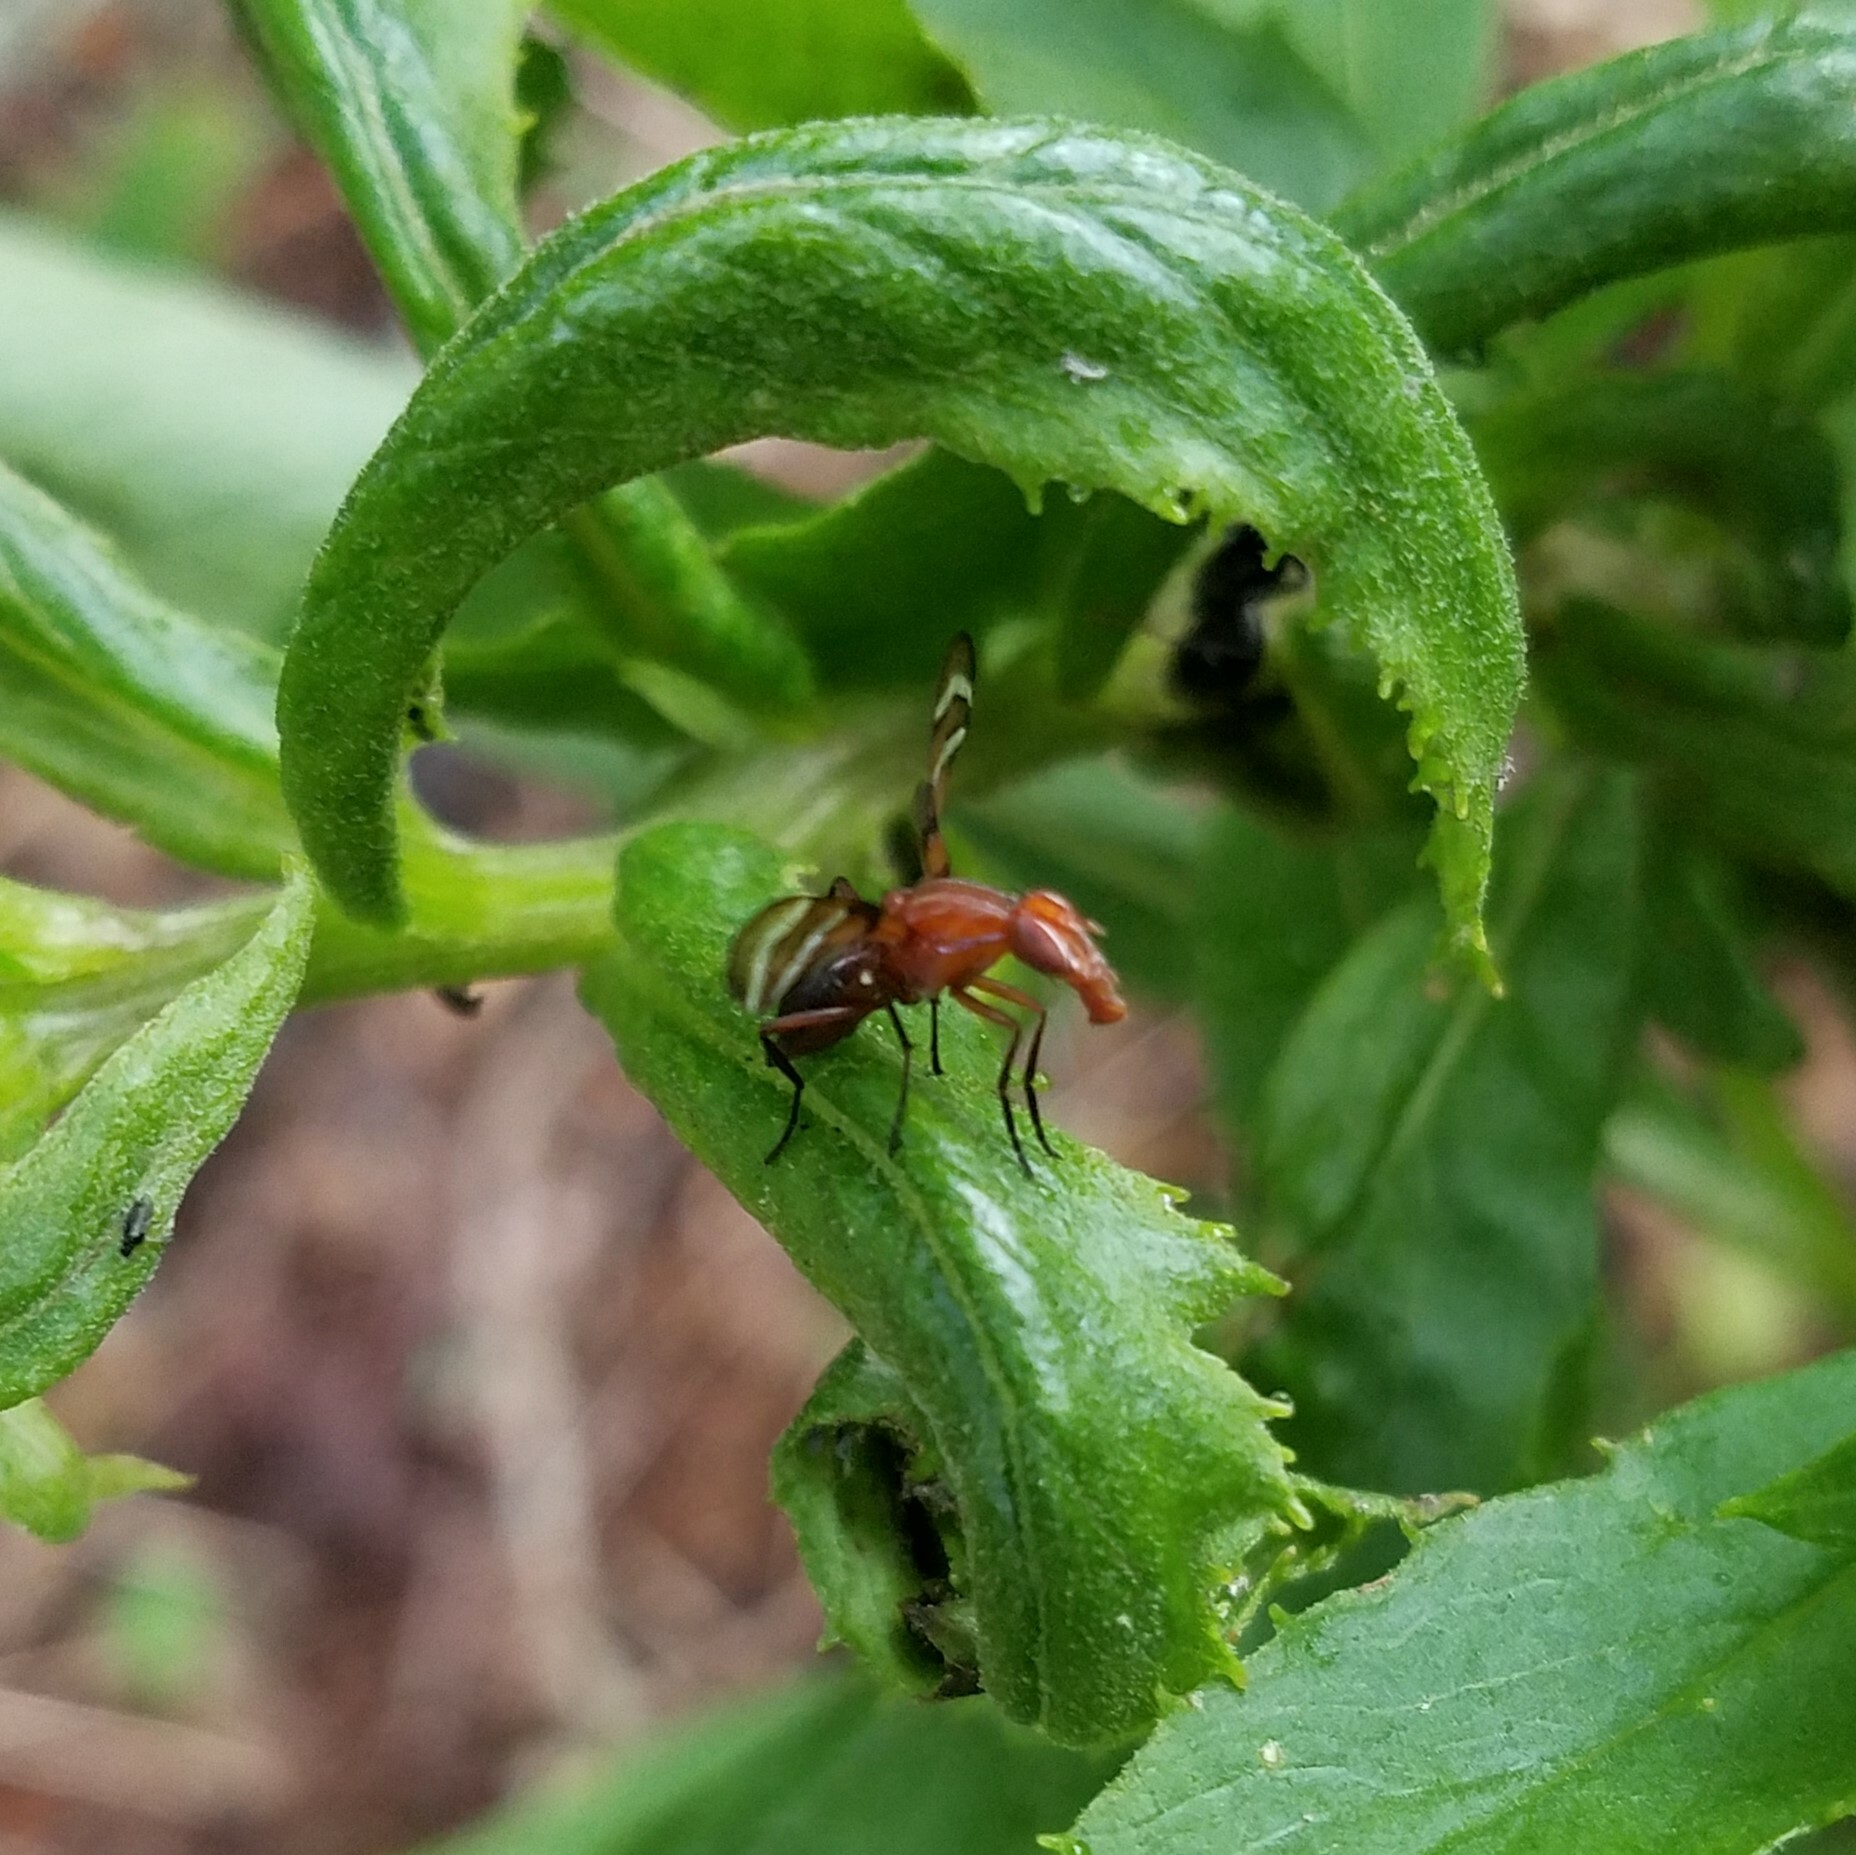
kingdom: Animalia
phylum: Arthropoda
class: Insecta
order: Diptera
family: Ulidiidae
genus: Tritoxa
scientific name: Tritoxa incurva
